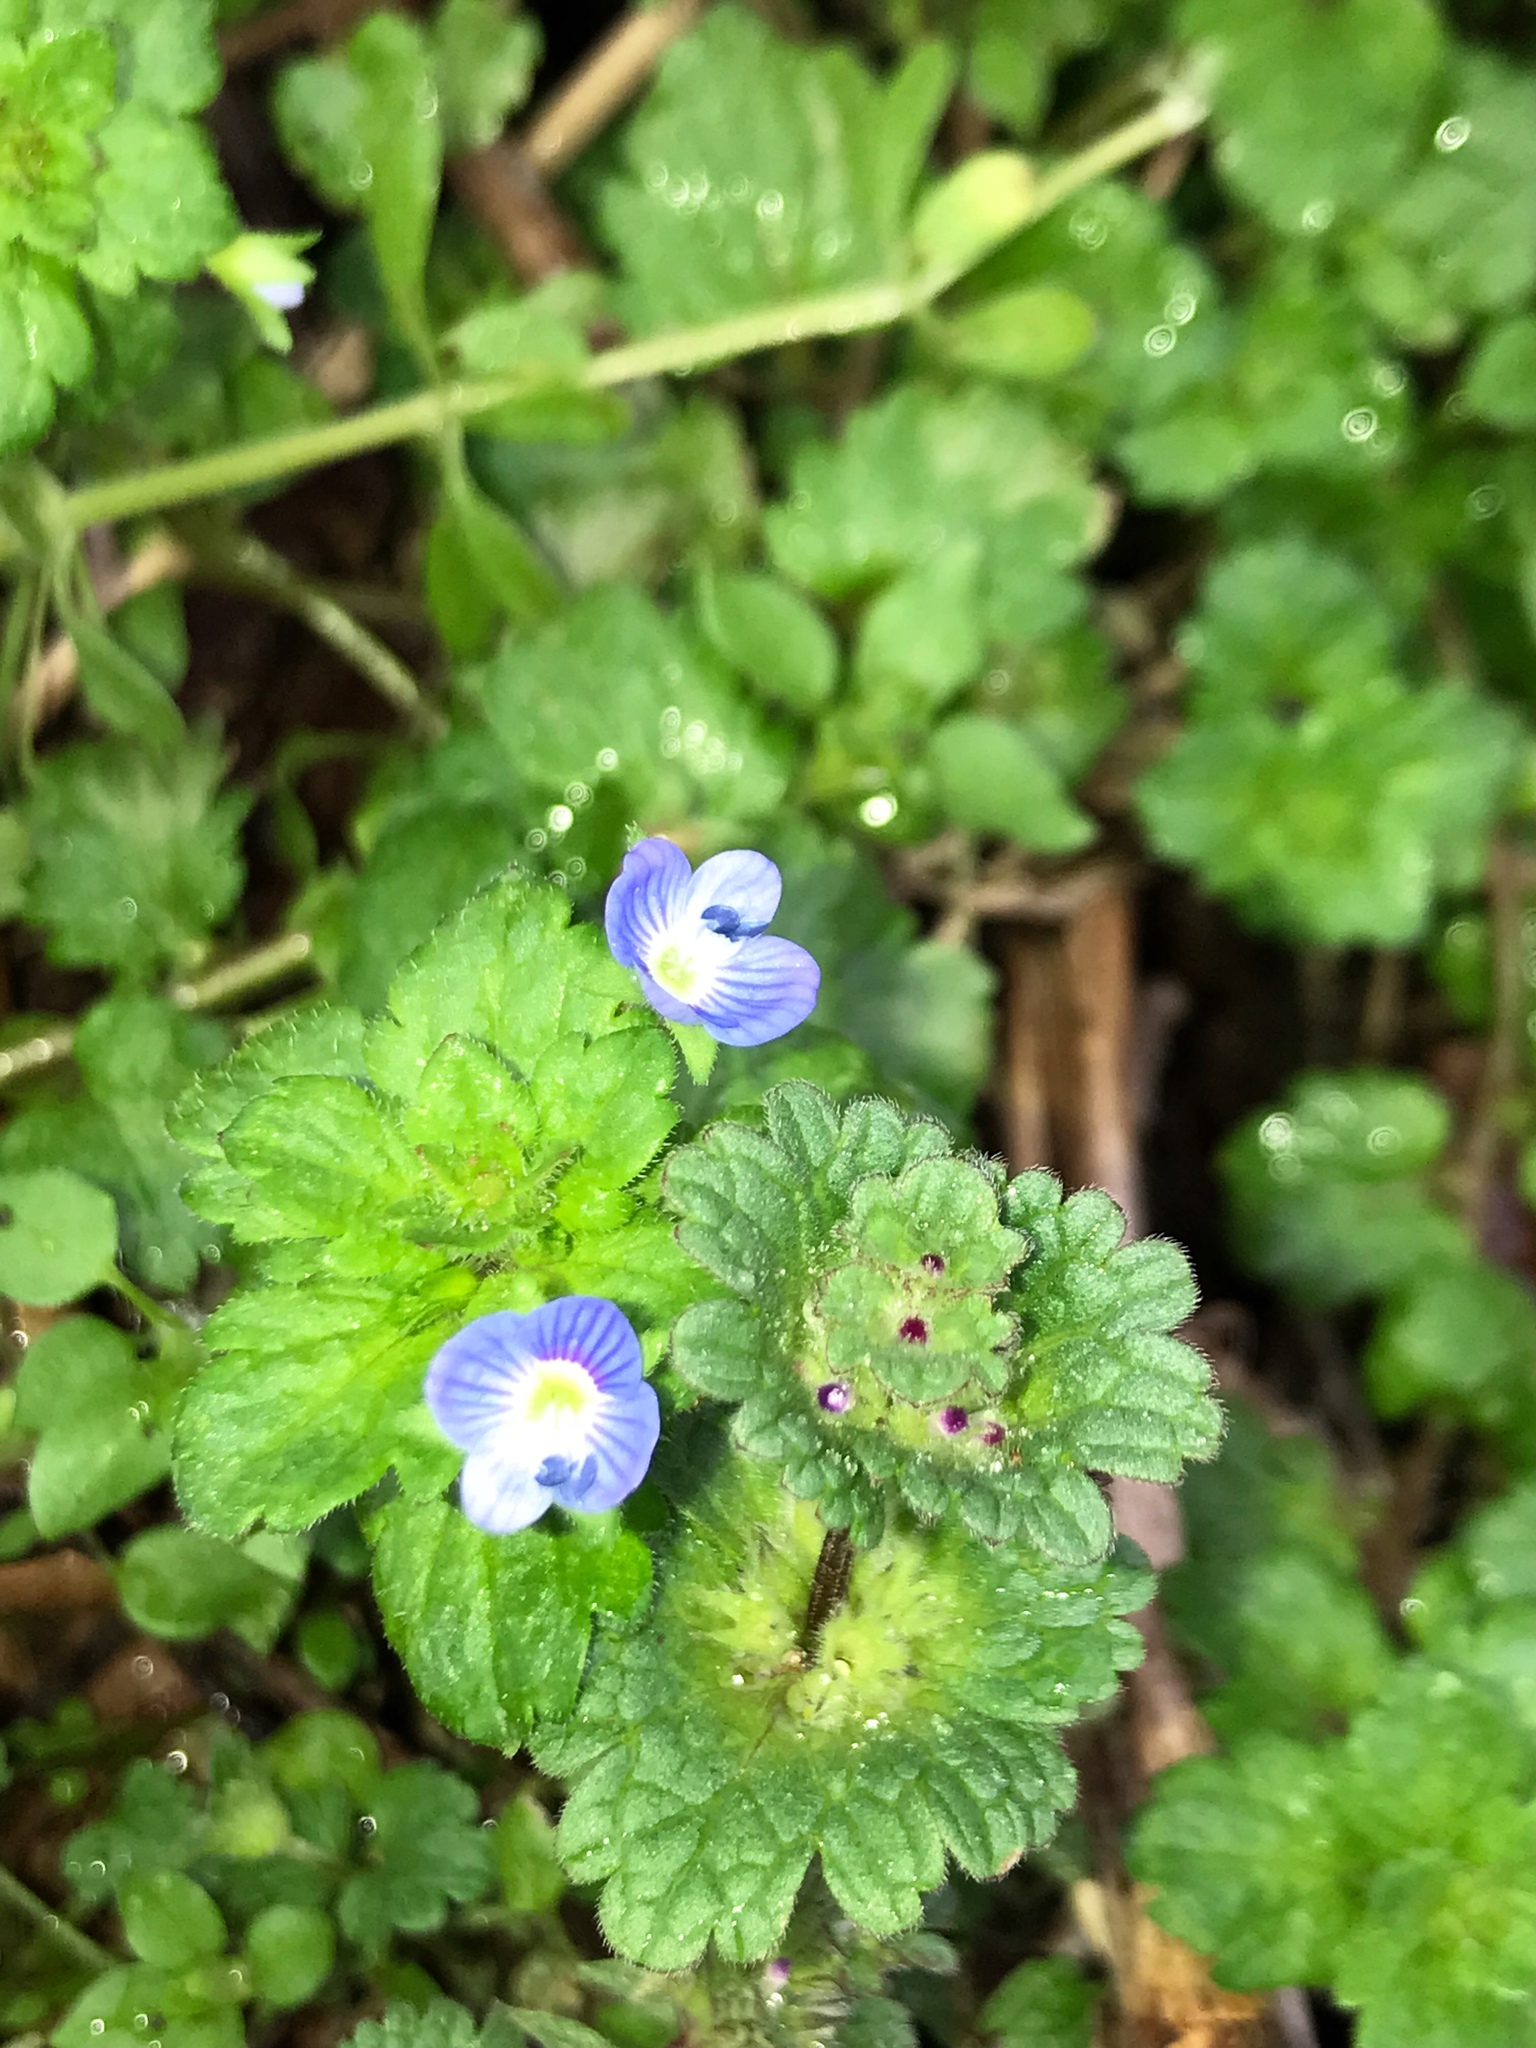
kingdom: Plantae
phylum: Tracheophyta
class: Magnoliopsida
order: Lamiales
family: Plantaginaceae
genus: Veronica
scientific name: Veronica persica
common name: Common field-speedwell
